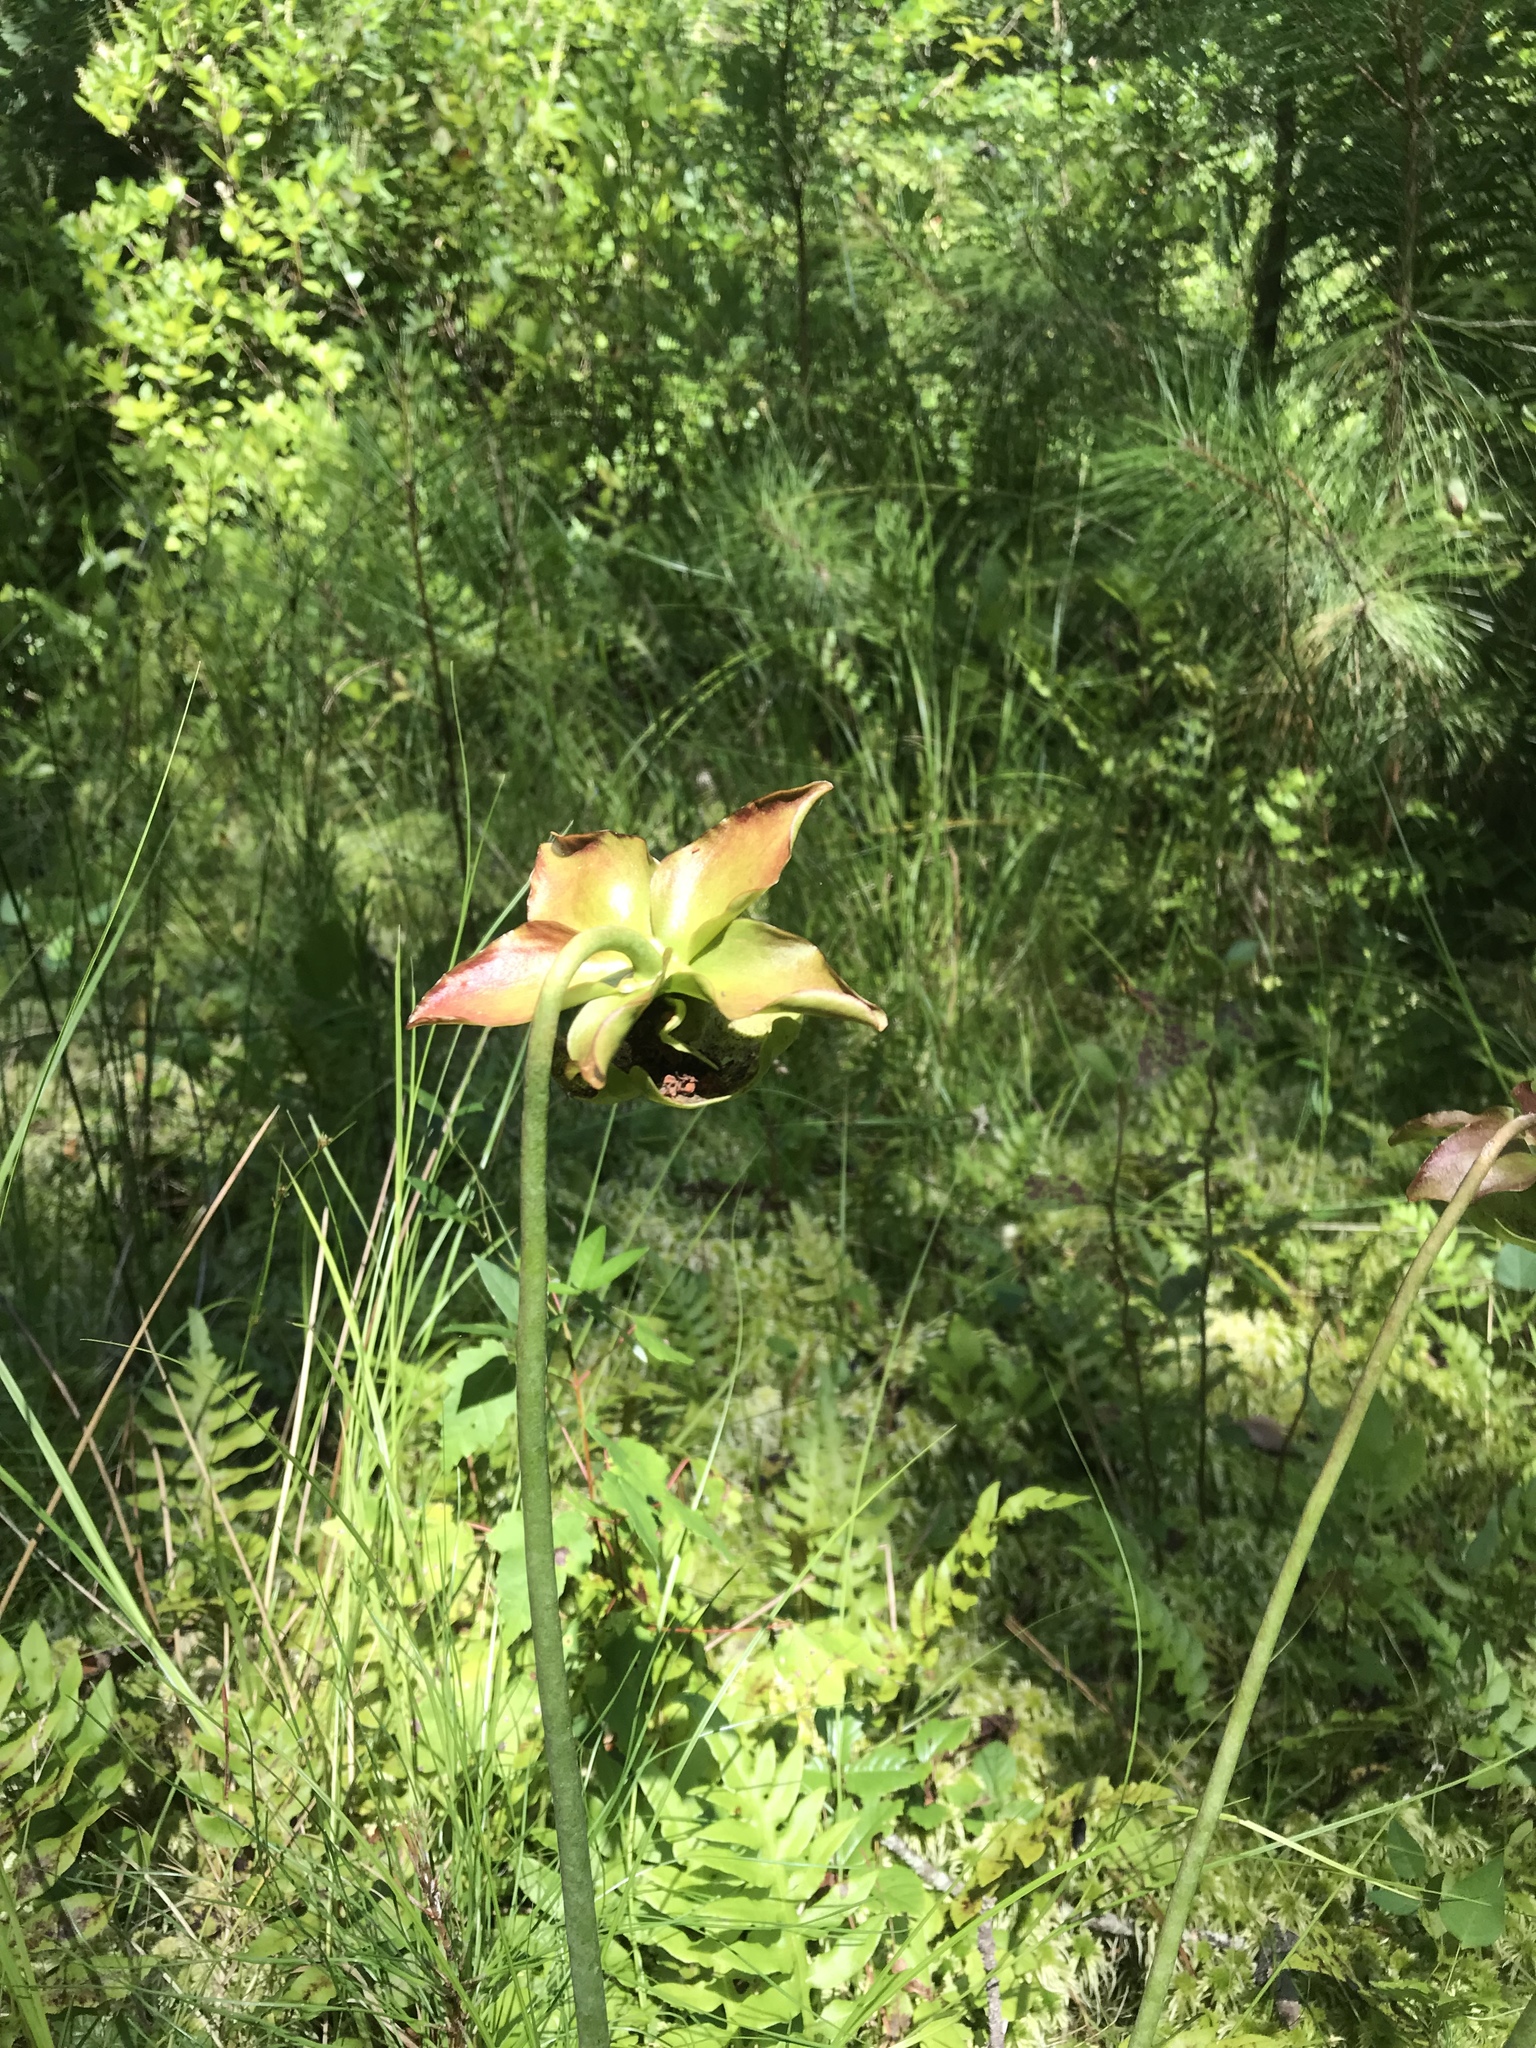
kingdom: Plantae
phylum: Tracheophyta
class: Magnoliopsida
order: Ericales
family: Sarraceniaceae
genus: Sarracenia
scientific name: Sarracenia purpurea
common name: Pitcherplant
